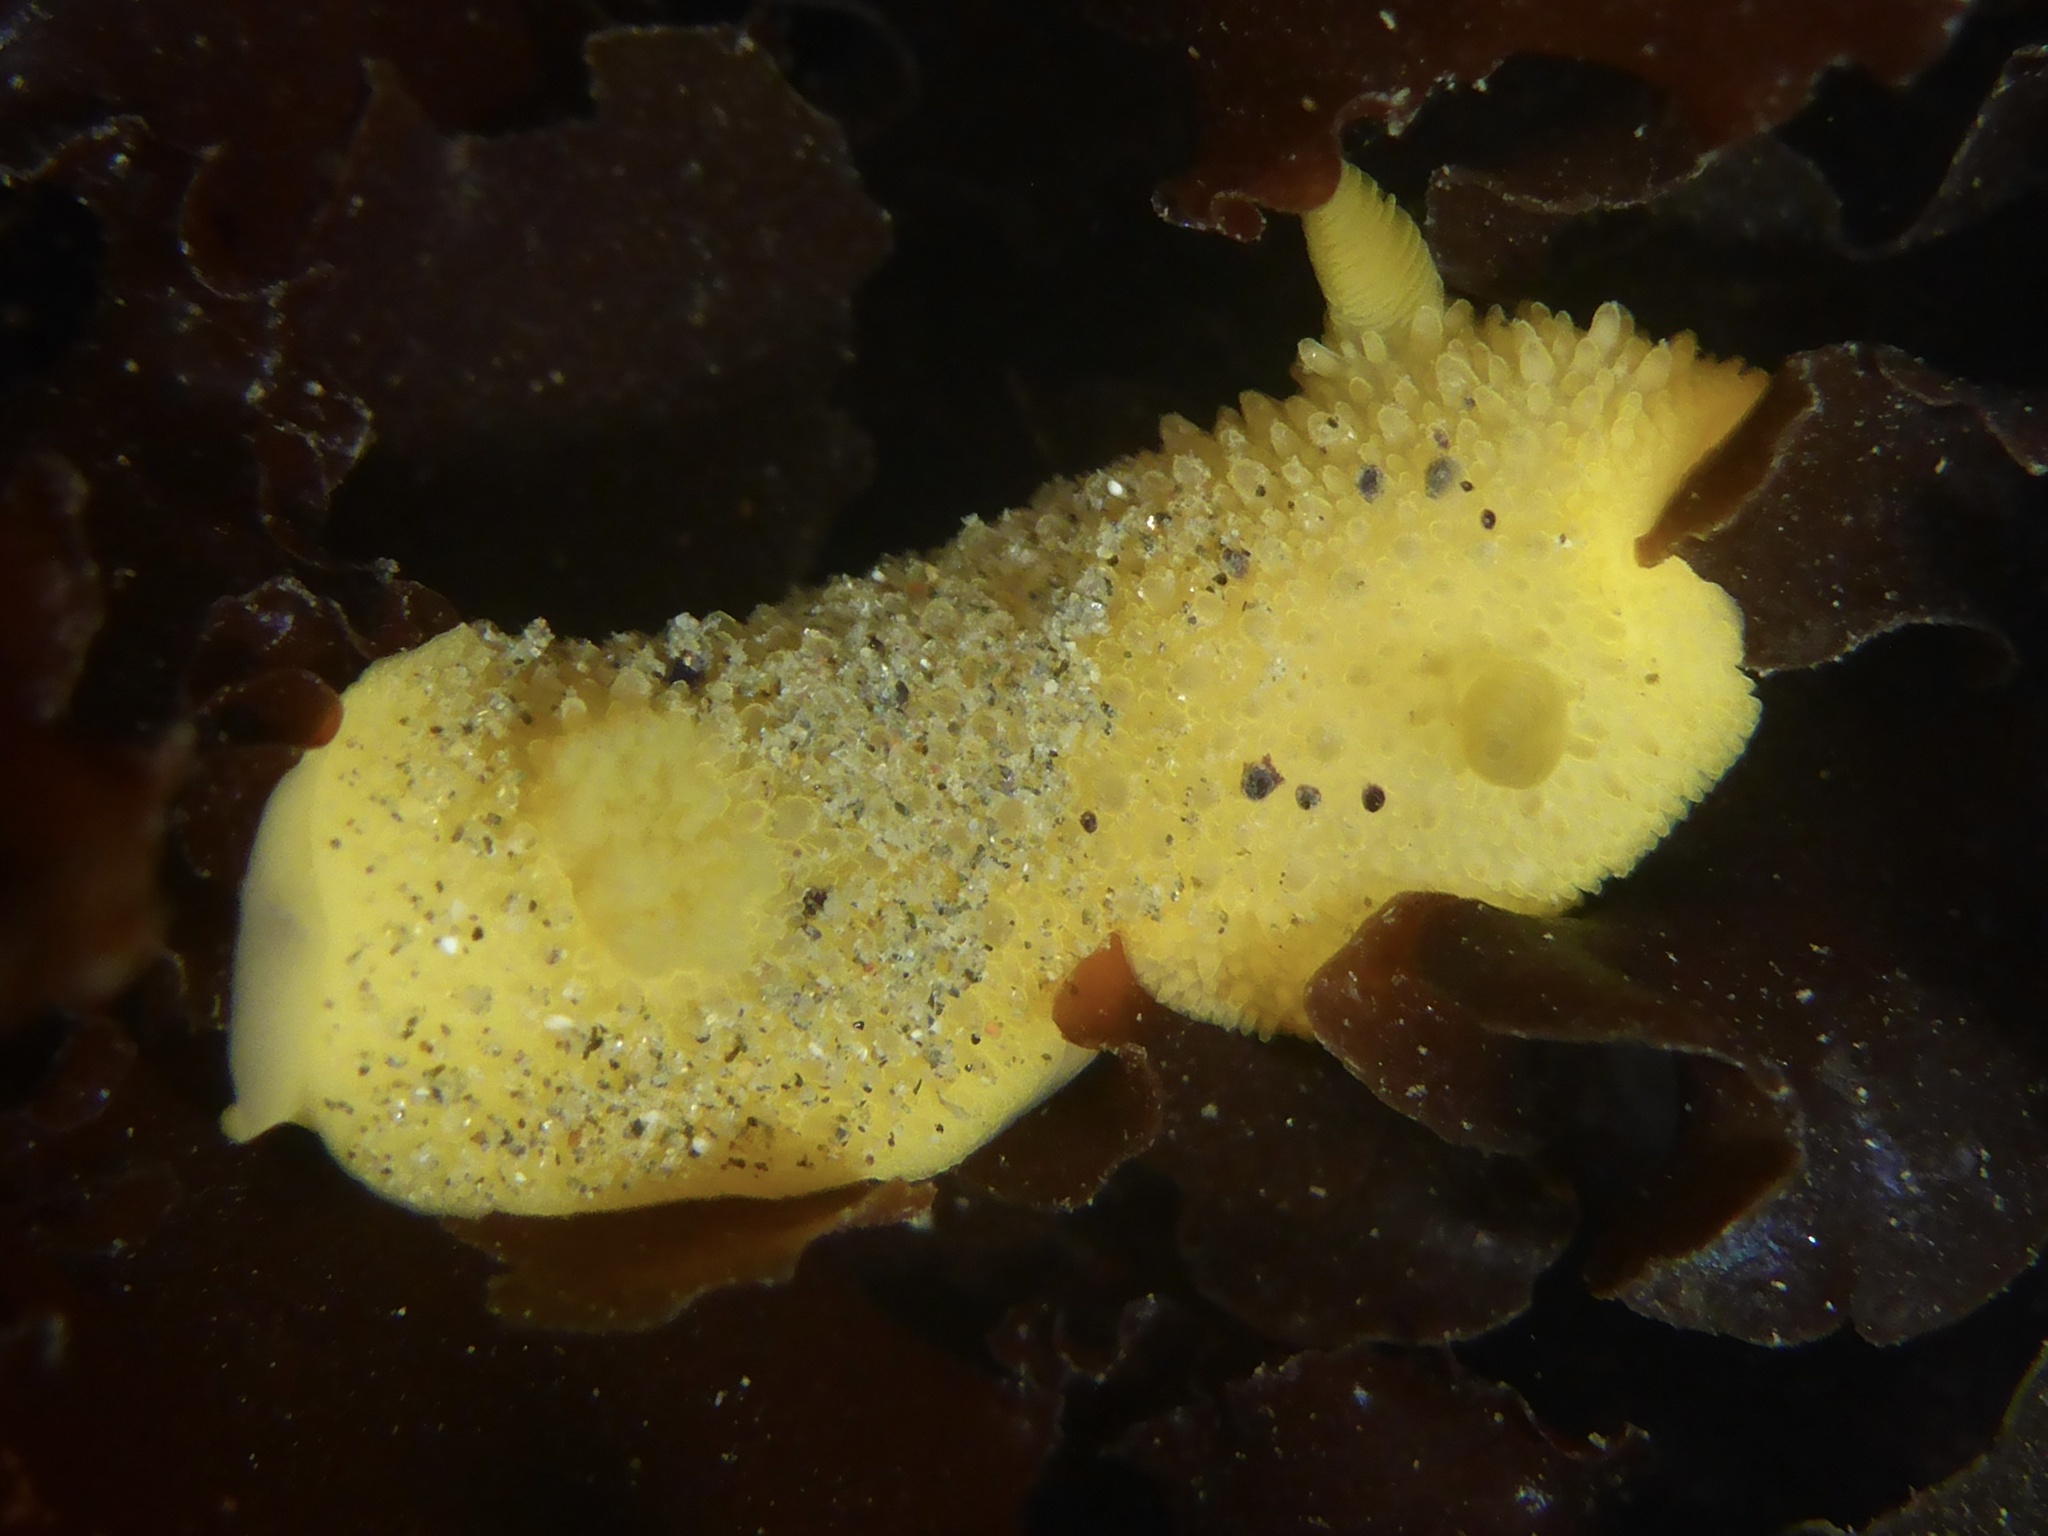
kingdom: Animalia
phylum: Mollusca
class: Gastropoda
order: Nudibranchia
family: Dorididae
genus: Doris
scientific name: Doris montereyensis
